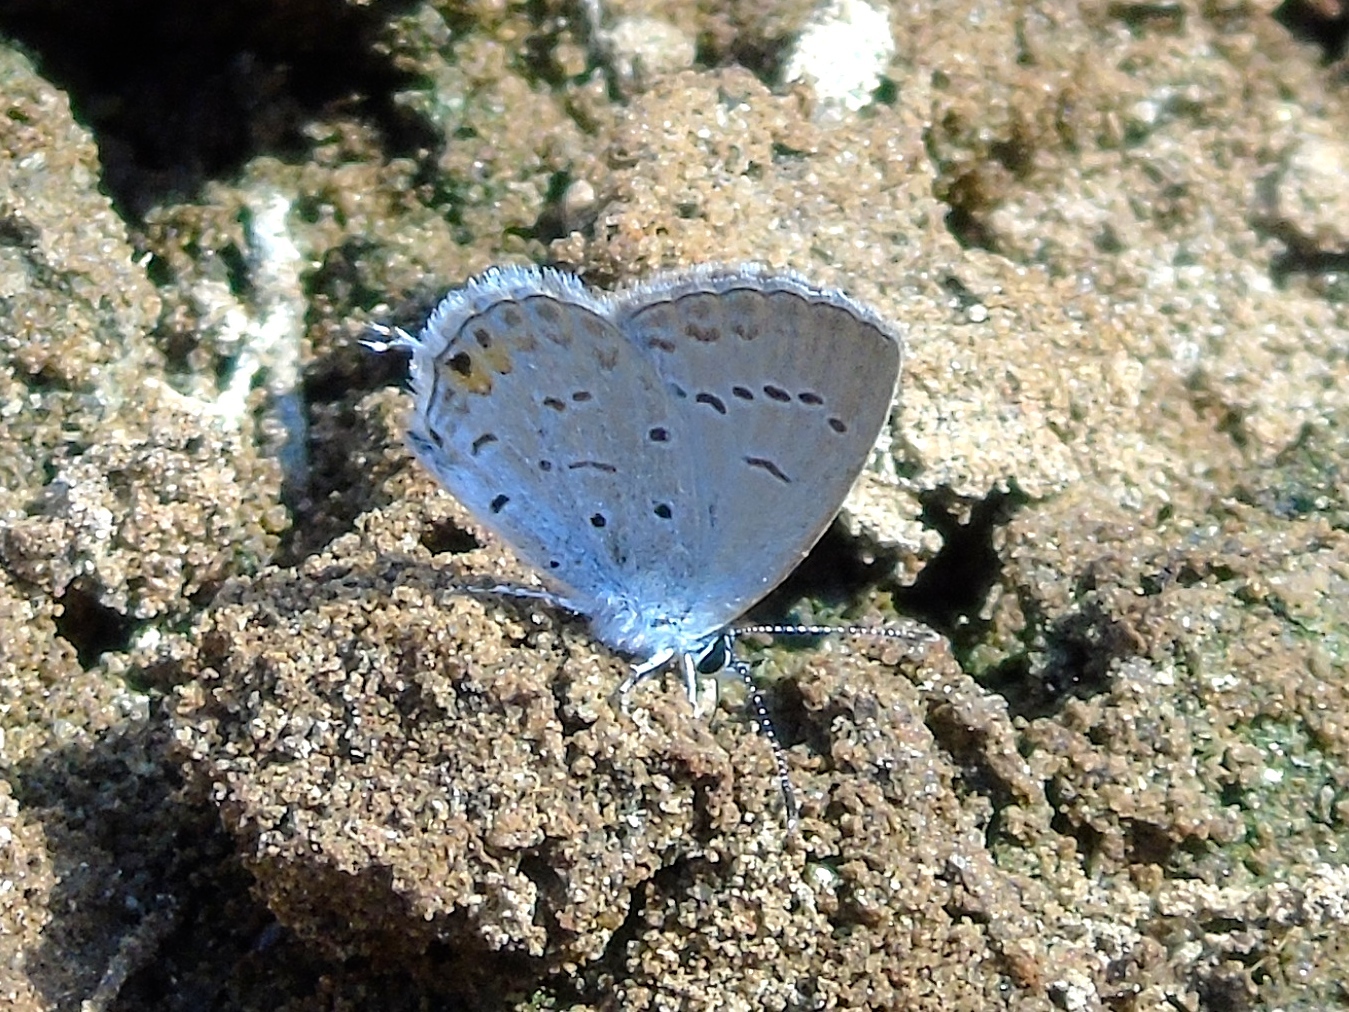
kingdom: Animalia
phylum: Arthropoda
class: Insecta
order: Lepidoptera
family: Lycaenidae
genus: Elkalyce
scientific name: Elkalyce comyntas
